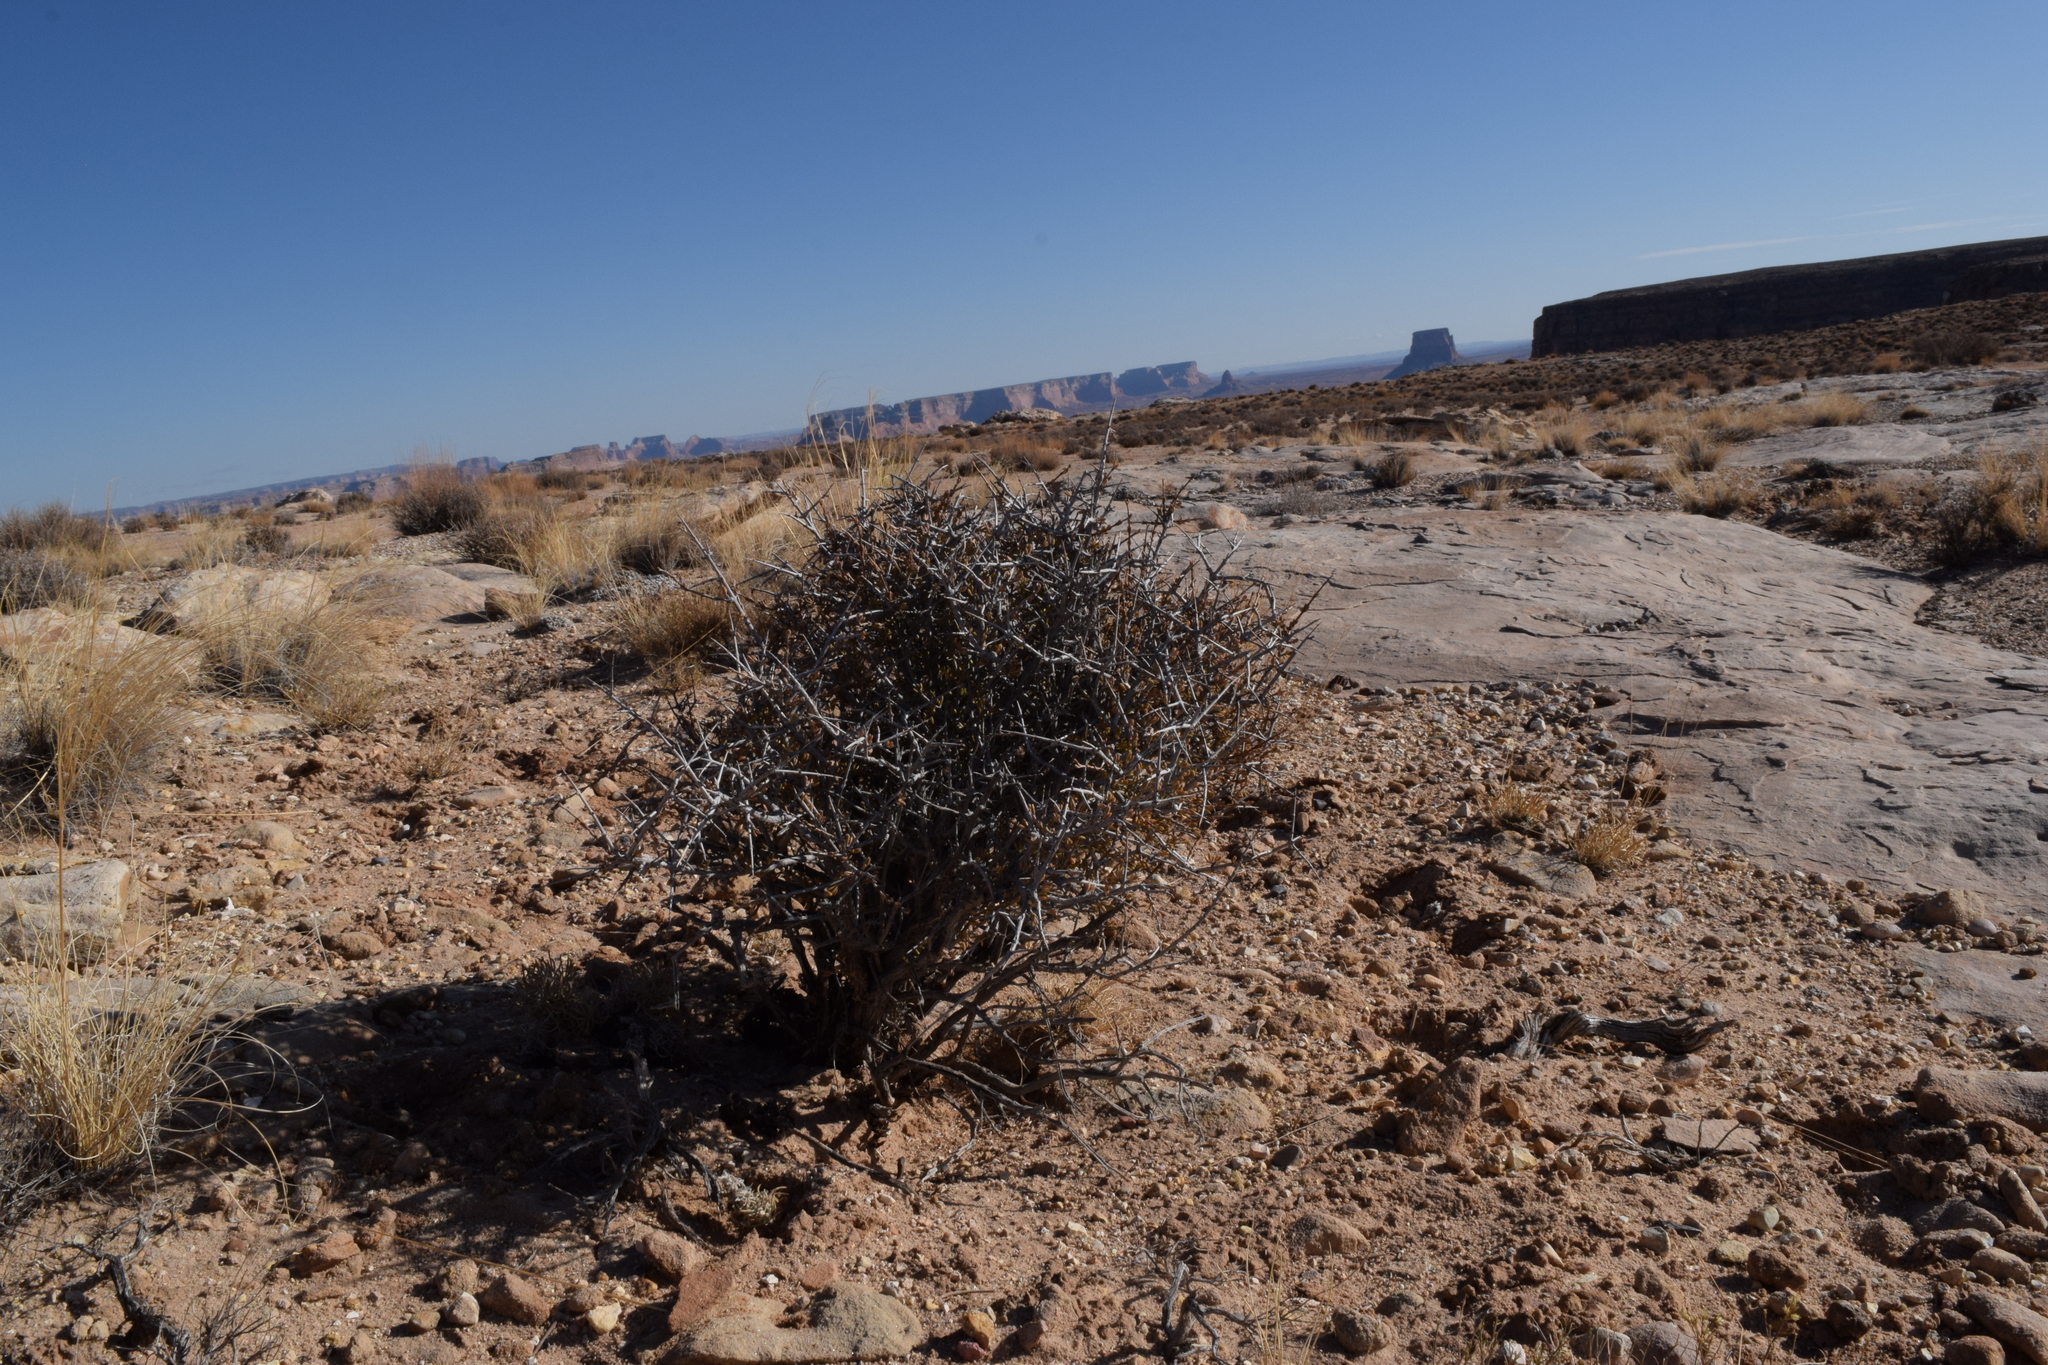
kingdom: Plantae
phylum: Tracheophyta
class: Magnoliopsida
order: Rosales
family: Rosaceae
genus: Coleogyne
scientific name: Coleogyne ramosissima
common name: Blackbrush
